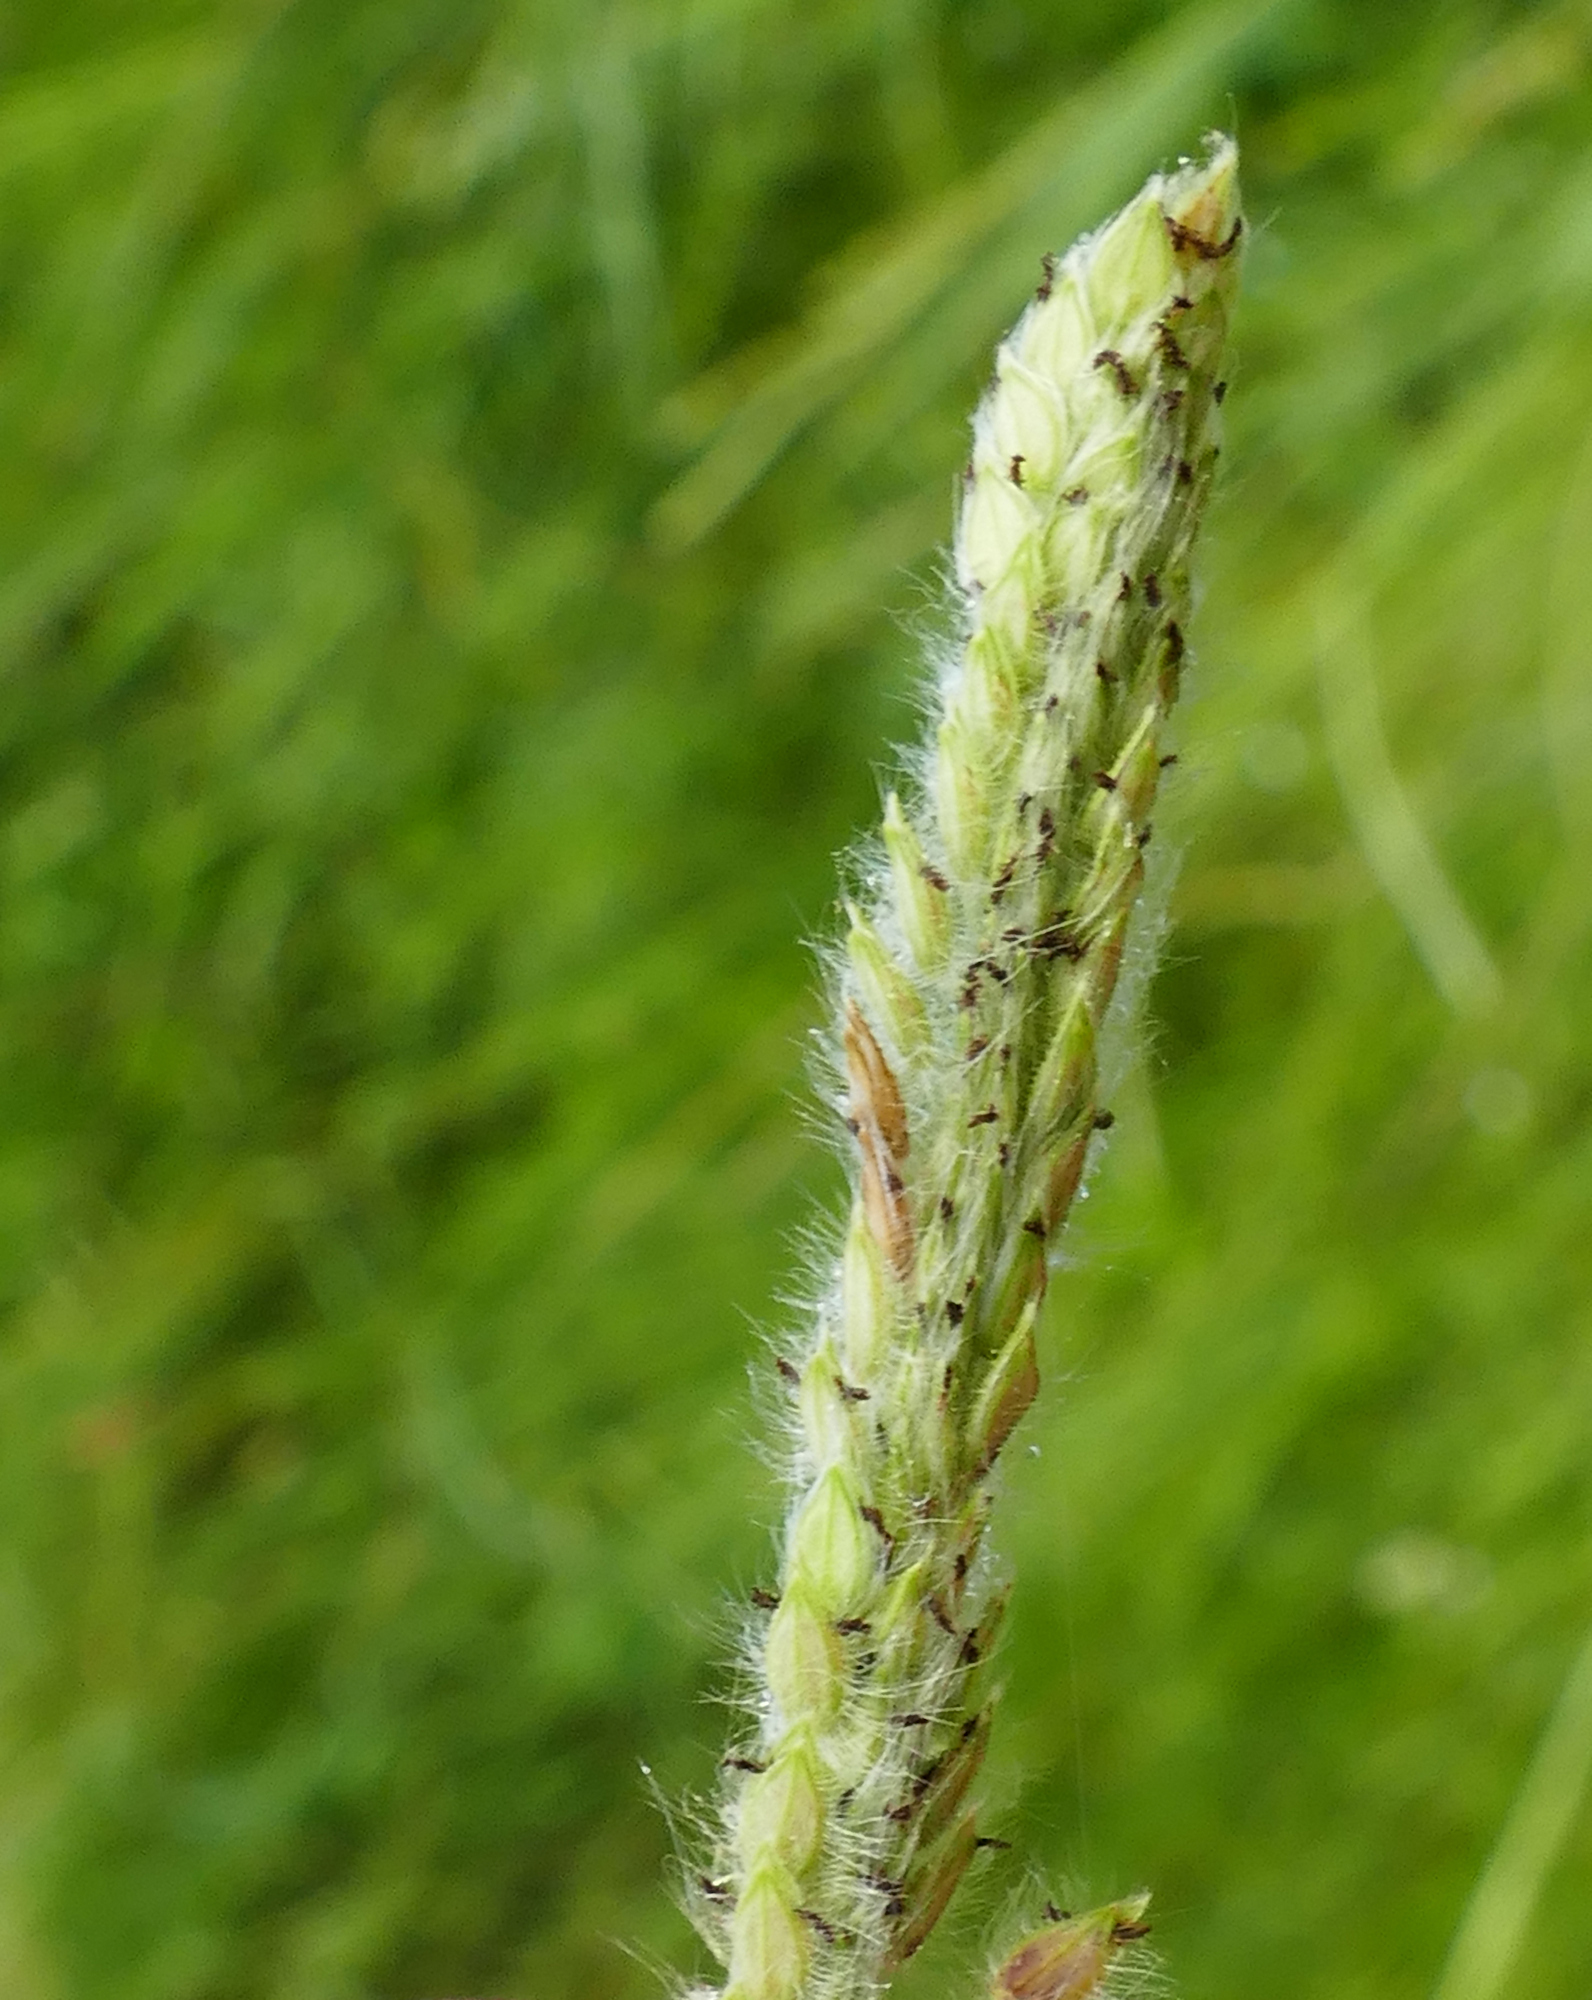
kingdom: Plantae
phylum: Tracheophyta
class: Liliopsida
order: Poales
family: Poaceae
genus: Paspalum
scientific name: Paspalum urvillei
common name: Vasey's grass
